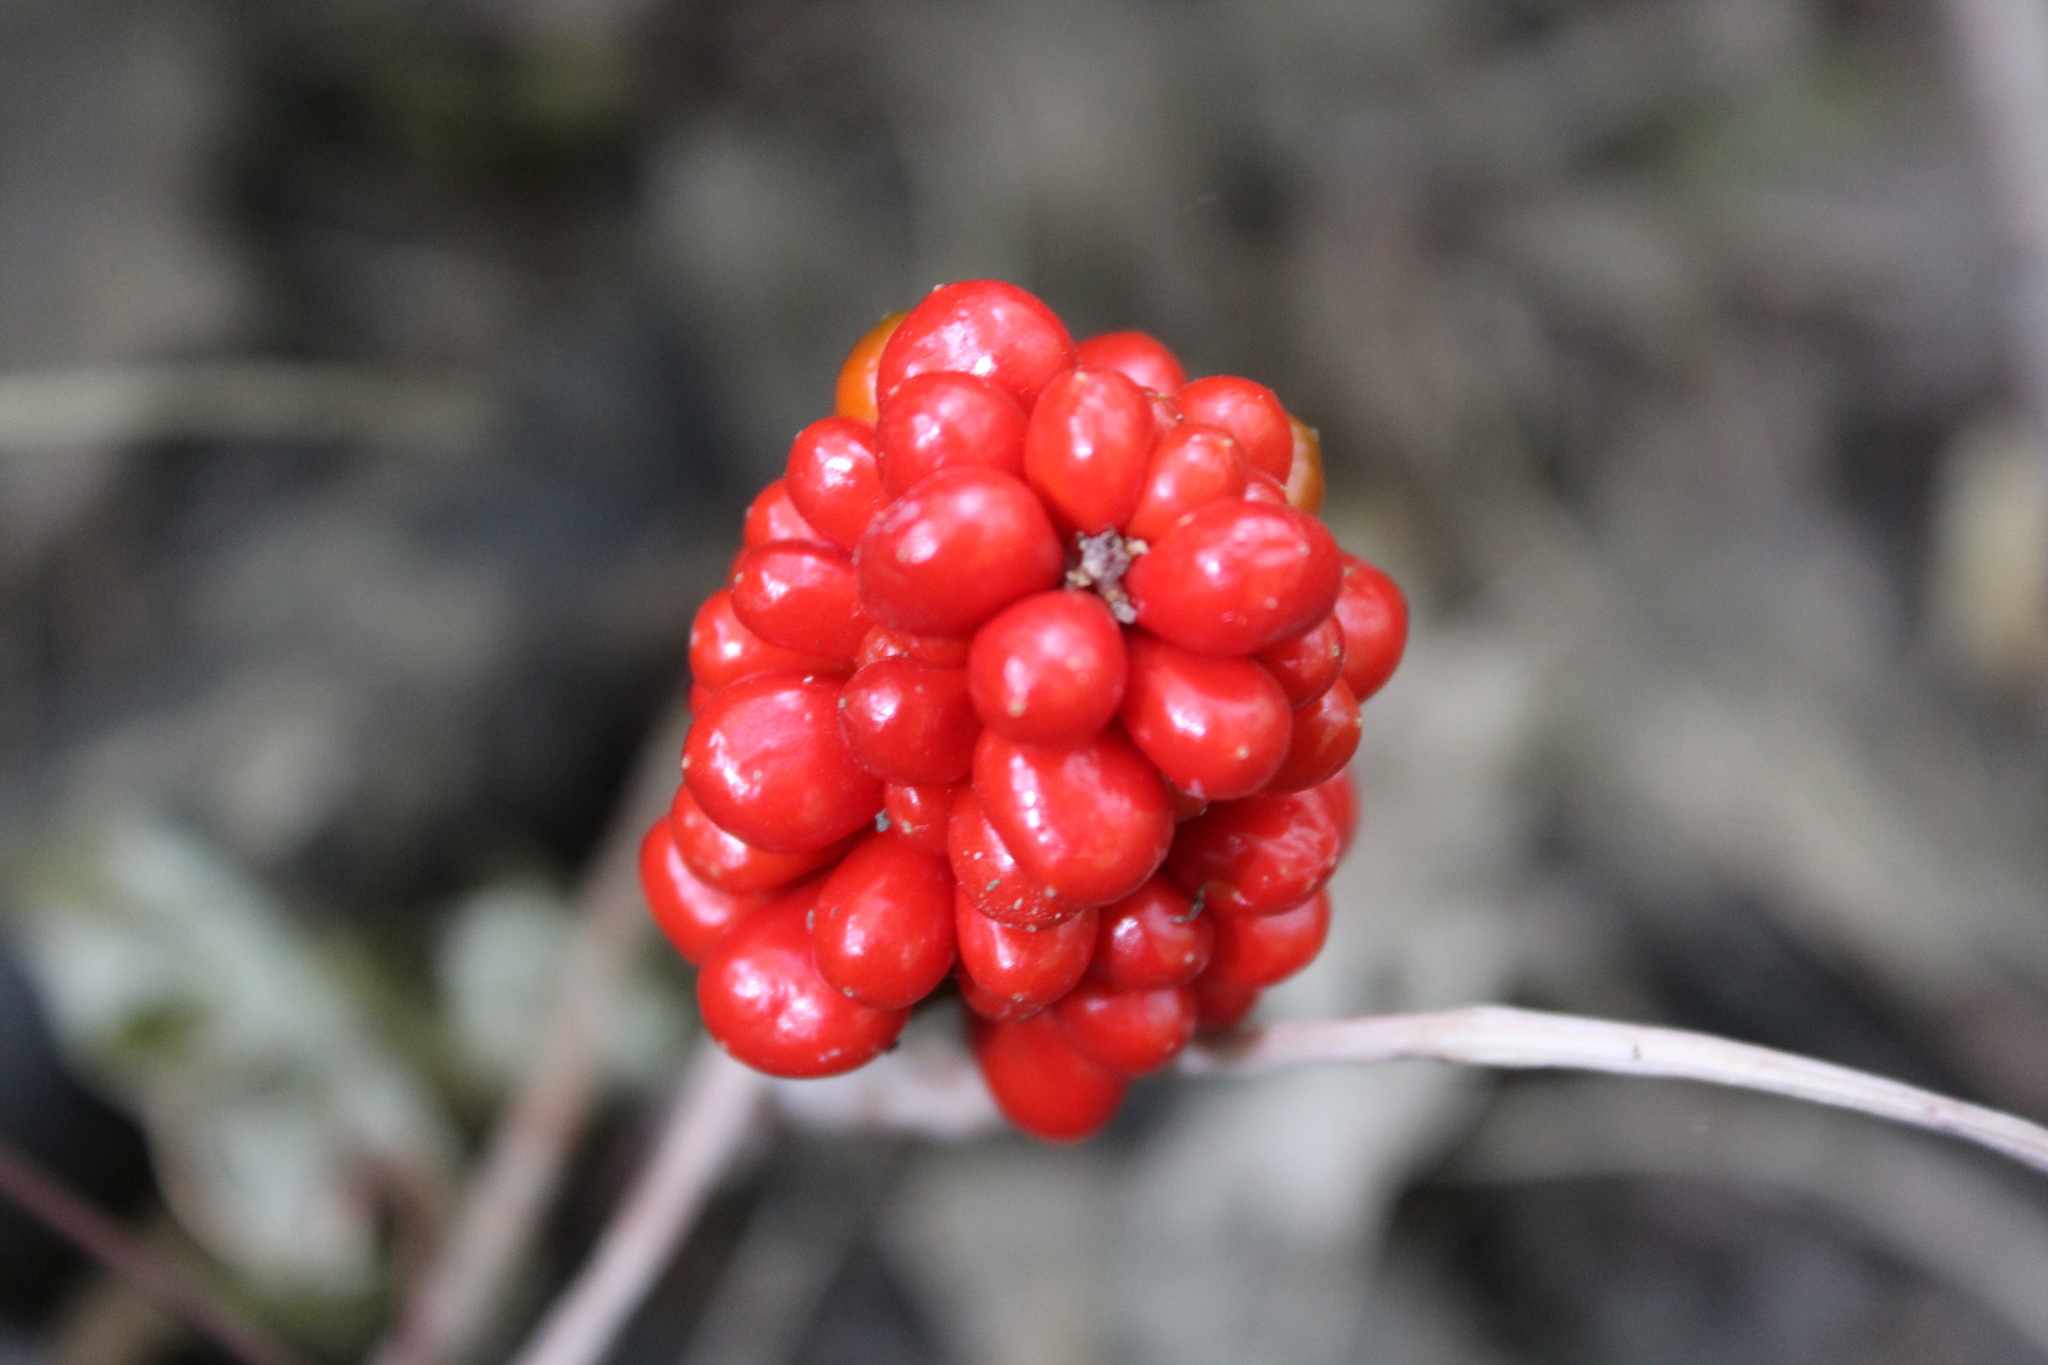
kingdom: Plantae
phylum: Tracheophyta
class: Liliopsida
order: Alismatales
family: Araceae
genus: Arisaema
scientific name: Arisaema triphyllum
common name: Jack-in-the-pulpit
